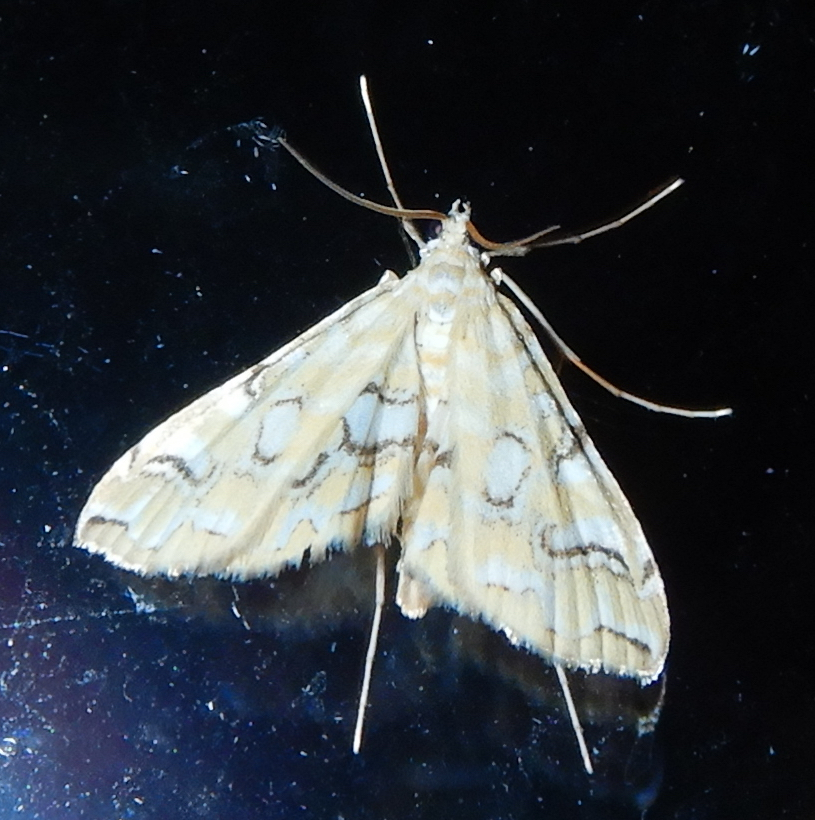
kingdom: Animalia
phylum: Arthropoda
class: Insecta
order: Lepidoptera
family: Crambidae
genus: Elophila
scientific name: Elophila icciusalis
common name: Pondside pyralid moth
